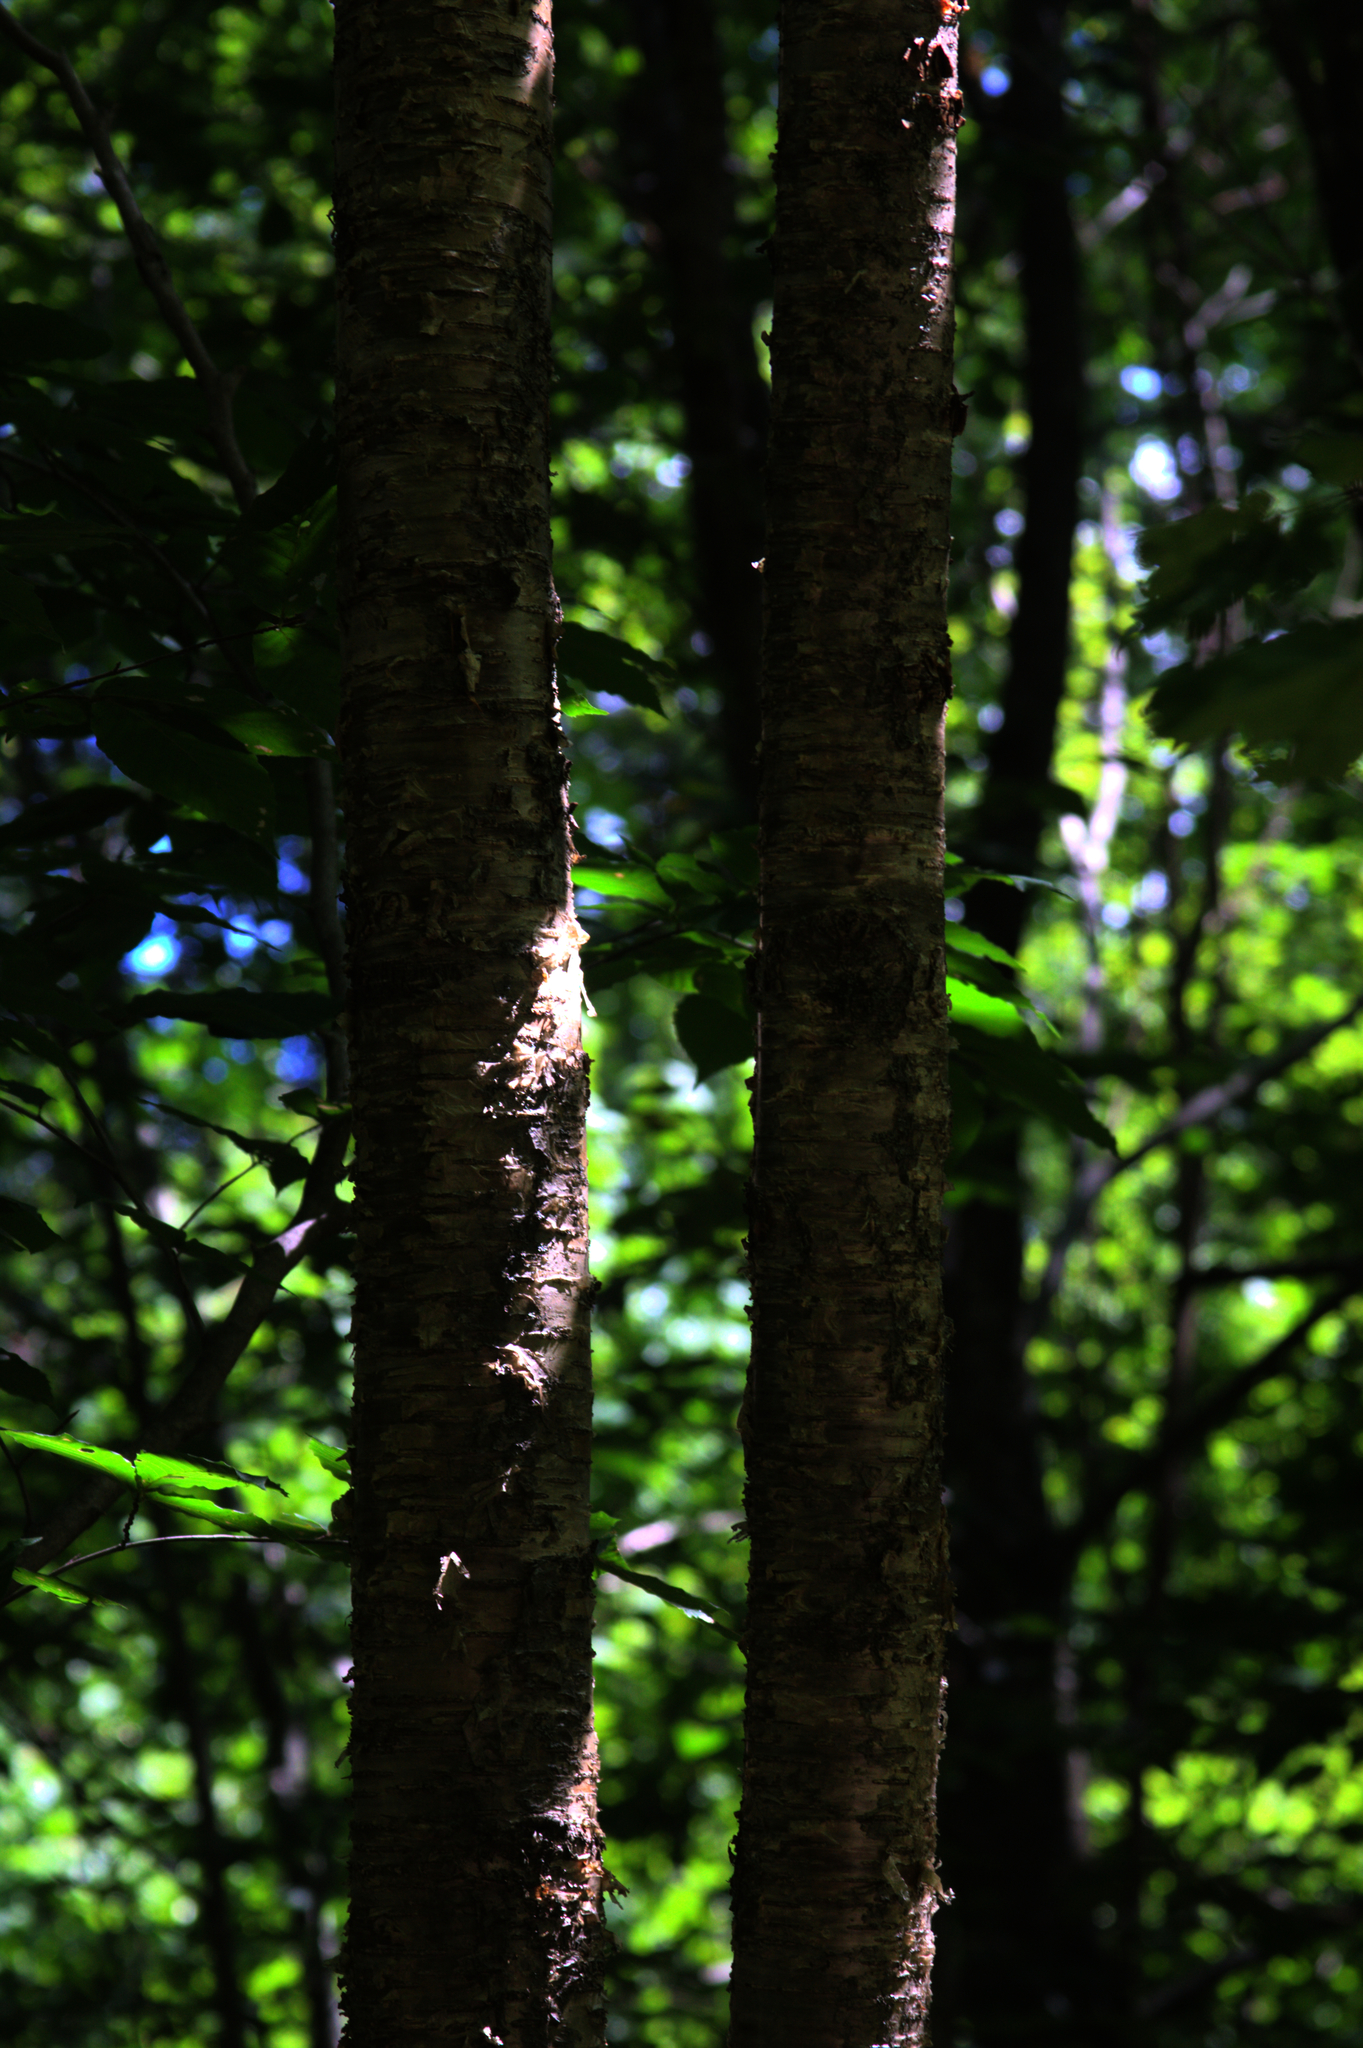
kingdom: Plantae
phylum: Tracheophyta
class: Magnoliopsida
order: Fagales
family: Betulaceae
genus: Betula
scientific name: Betula alleghaniensis
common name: Yellow birch
